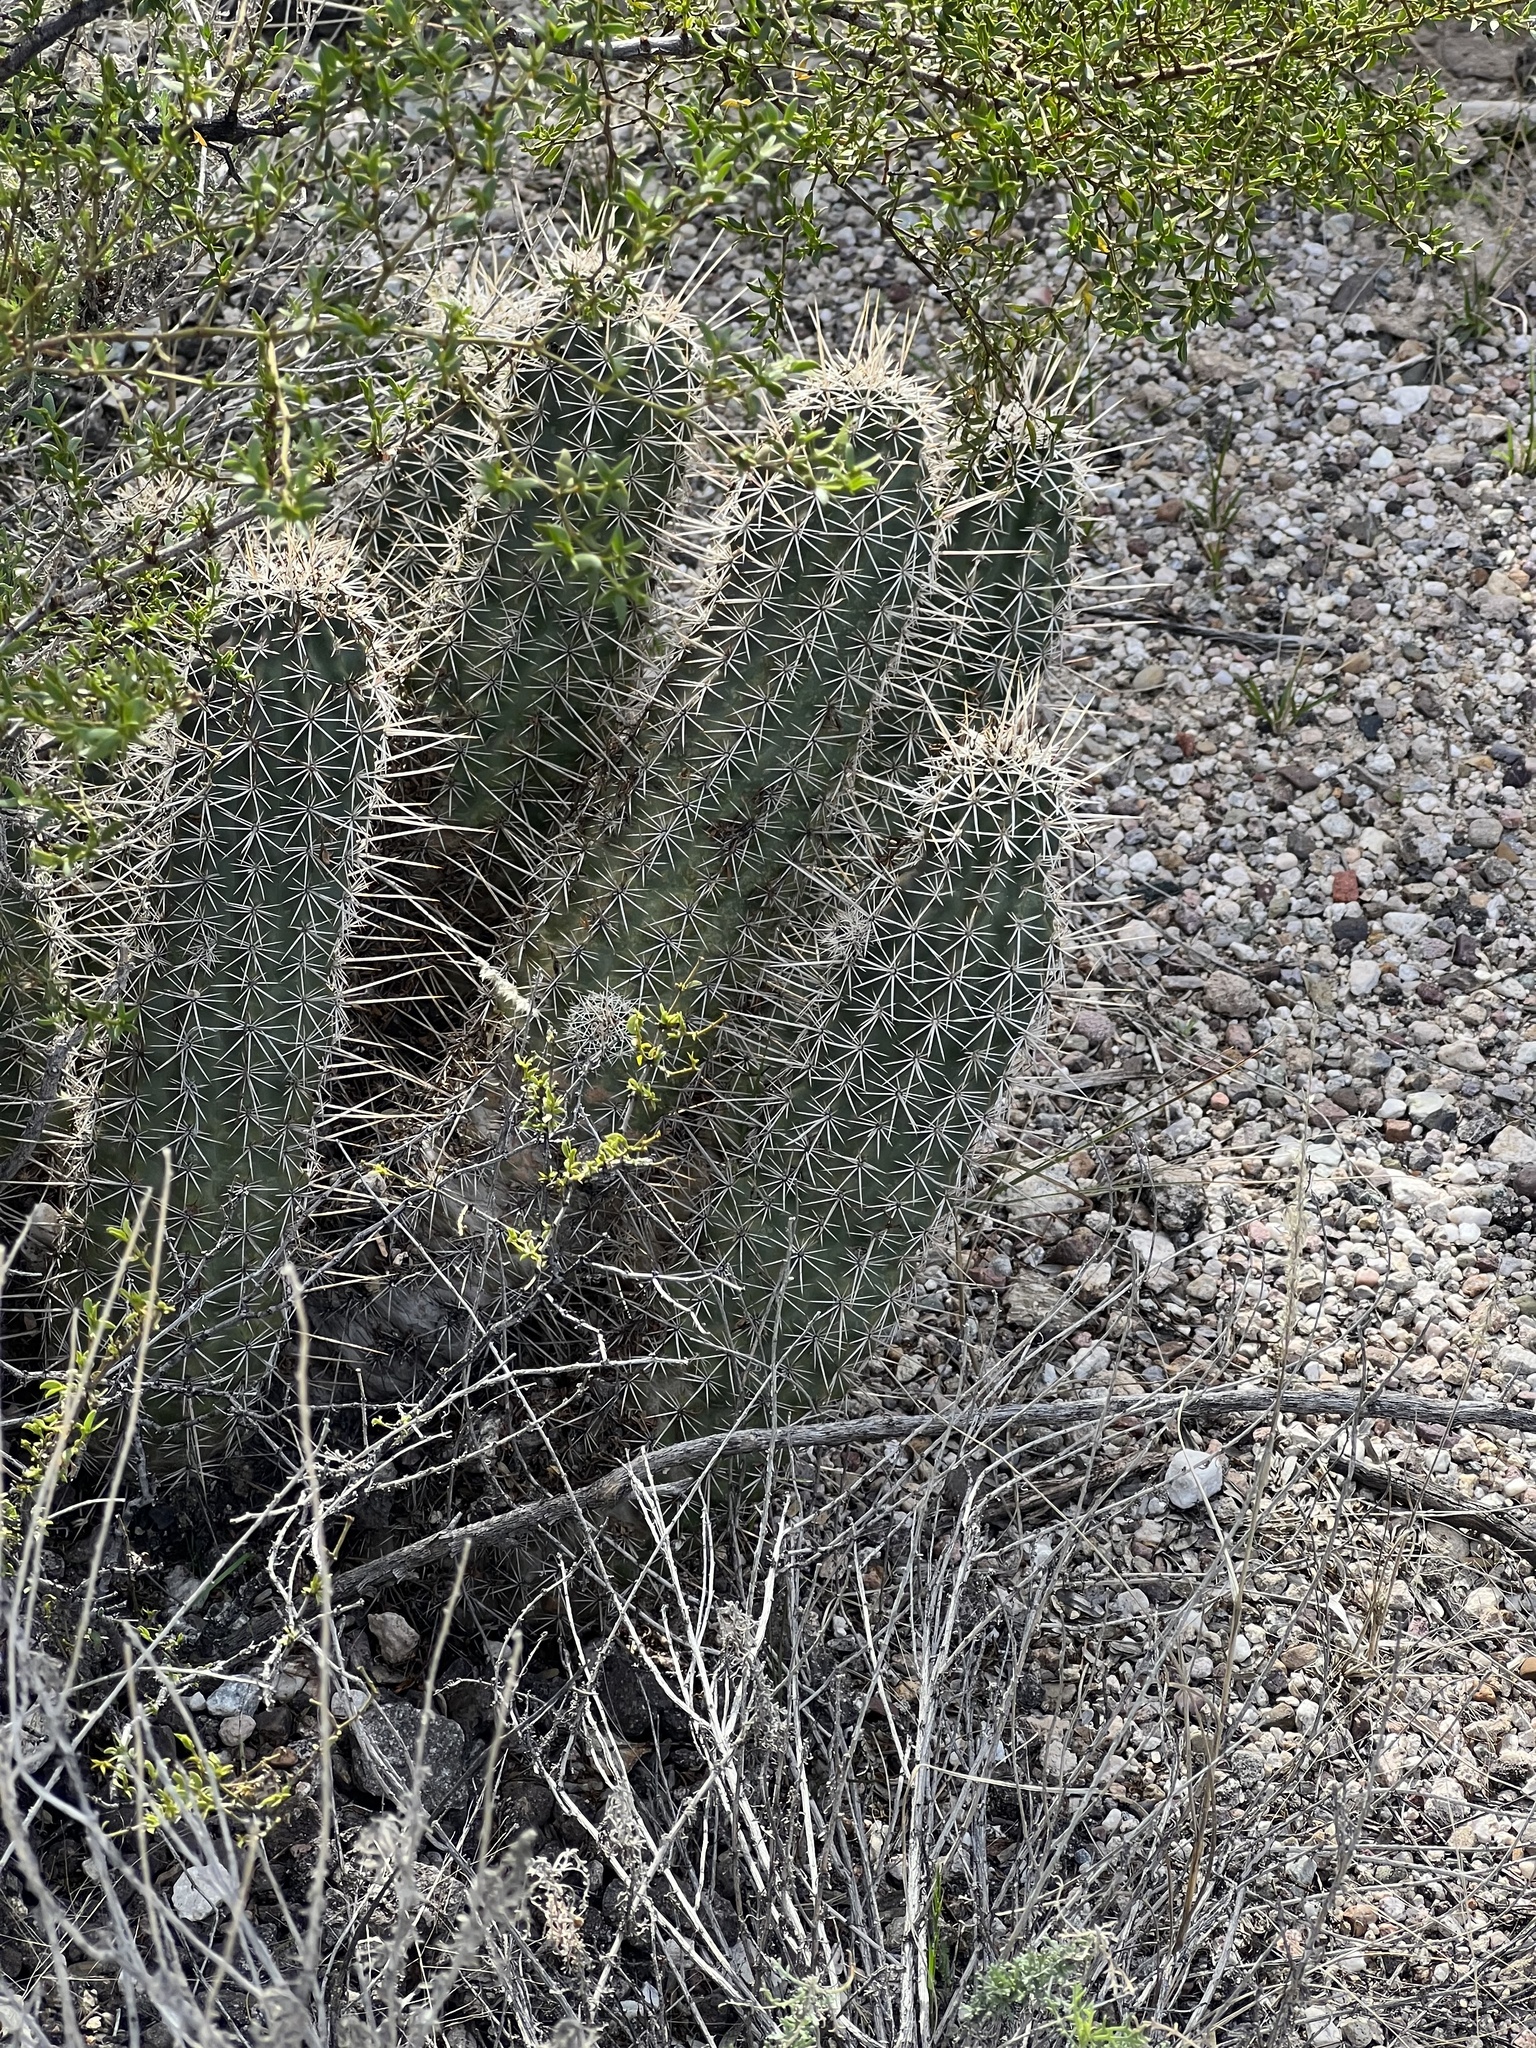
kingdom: Plantae
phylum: Tracheophyta
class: Magnoliopsida
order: Caryophyllales
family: Cactaceae
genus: Echinocereus
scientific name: Echinocereus fasciculatus
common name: Bundle hedgehog
